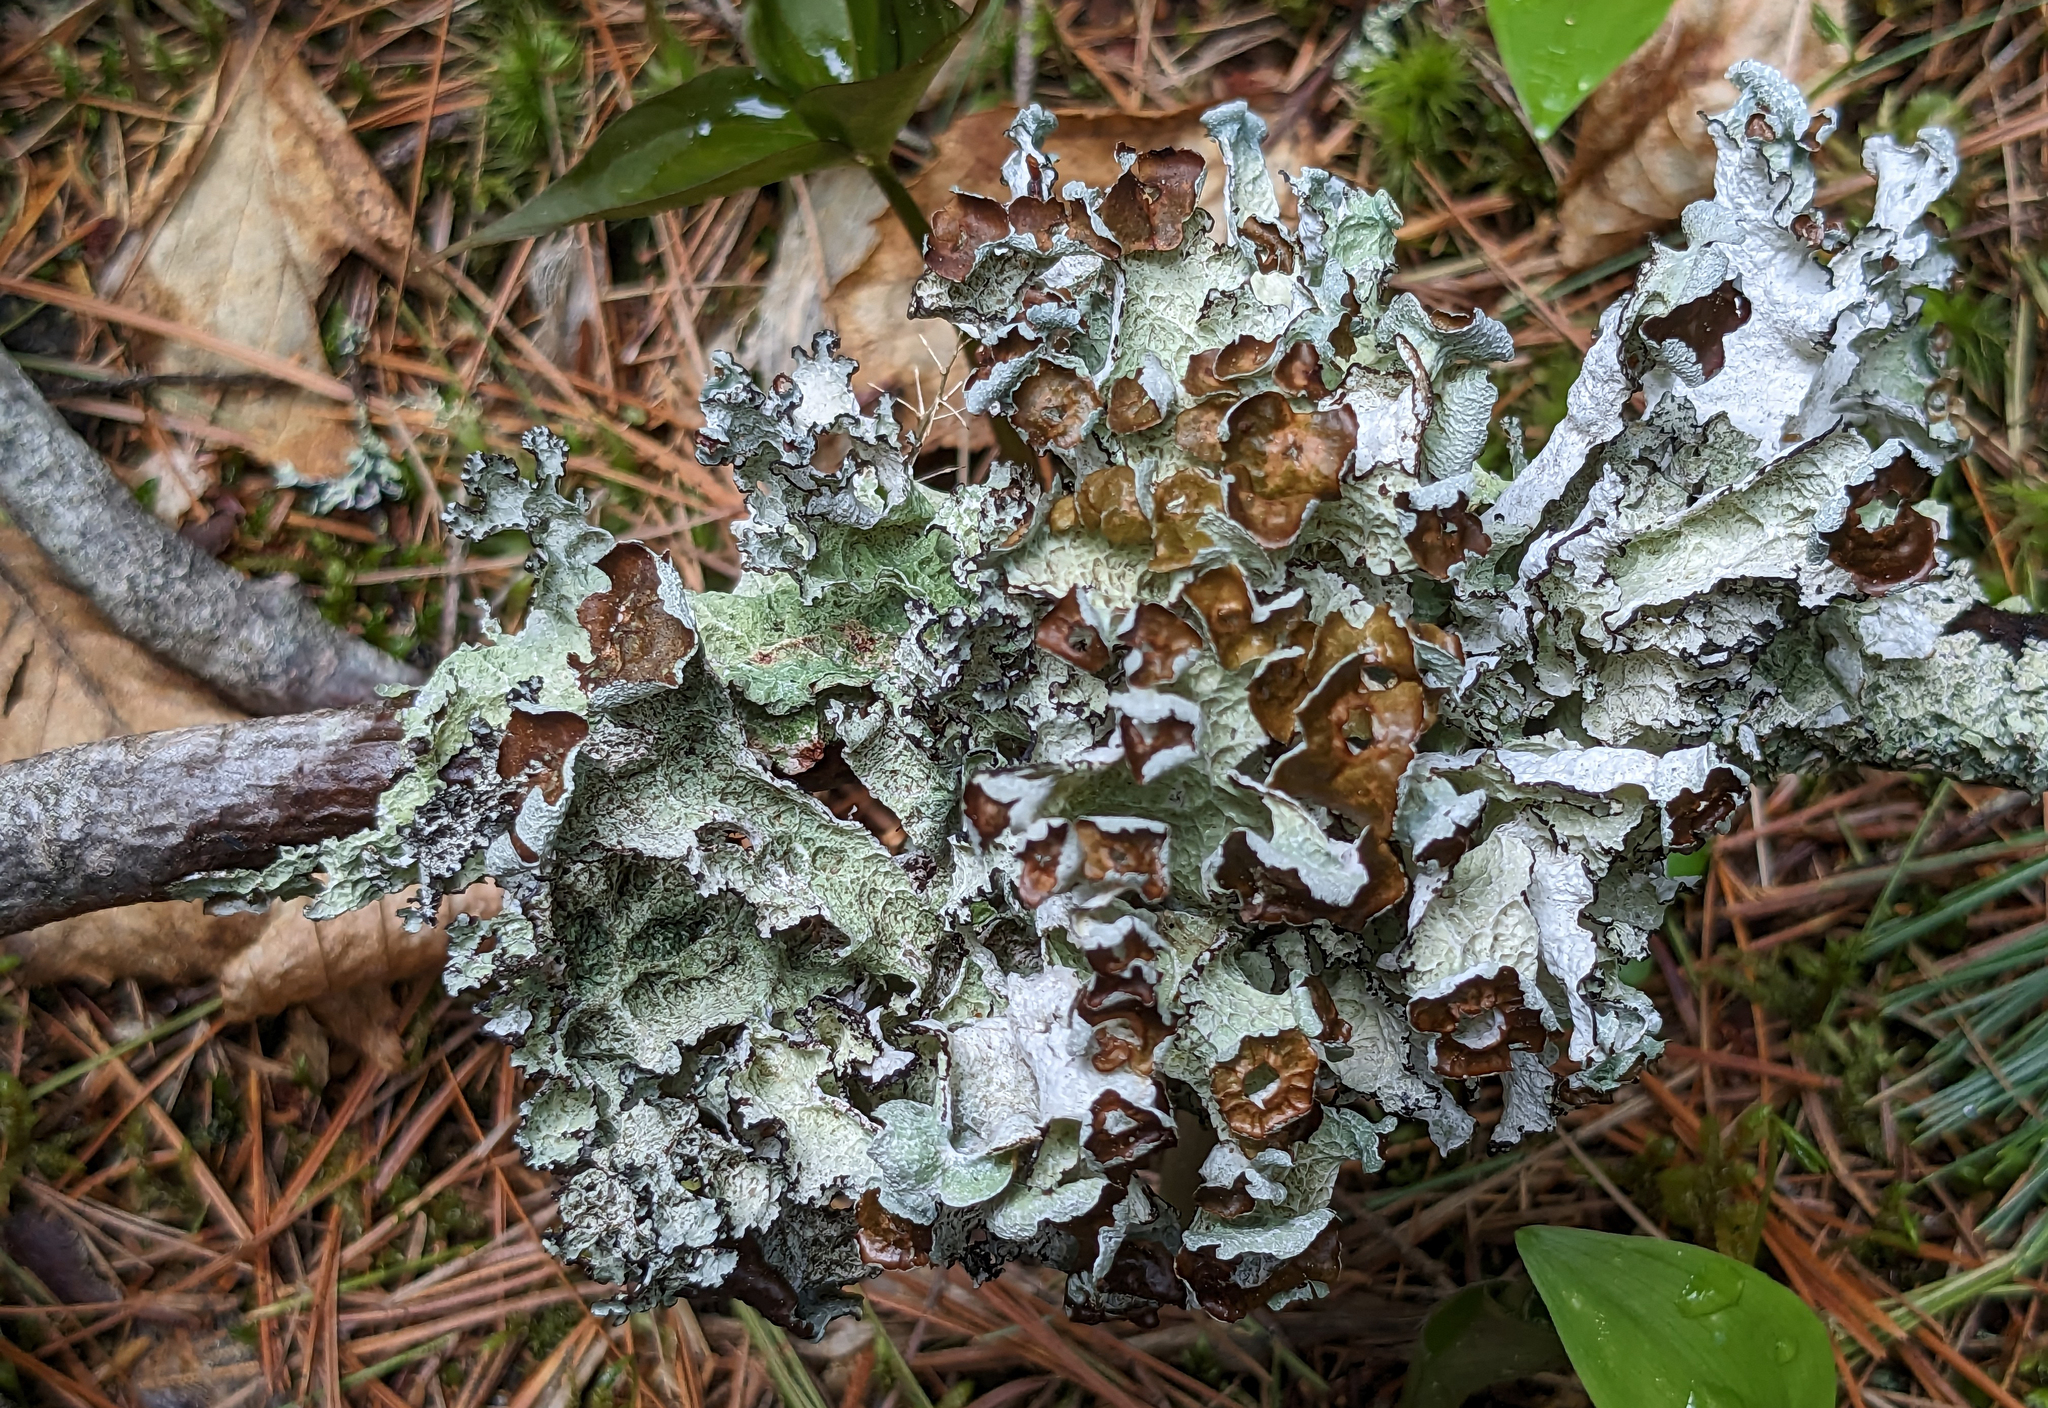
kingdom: Fungi
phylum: Ascomycota
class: Lecanoromycetes
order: Lecanorales
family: Parmeliaceae
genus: Platismatia
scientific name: Platismatia tuckermanii
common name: Crumpled rag lichen
